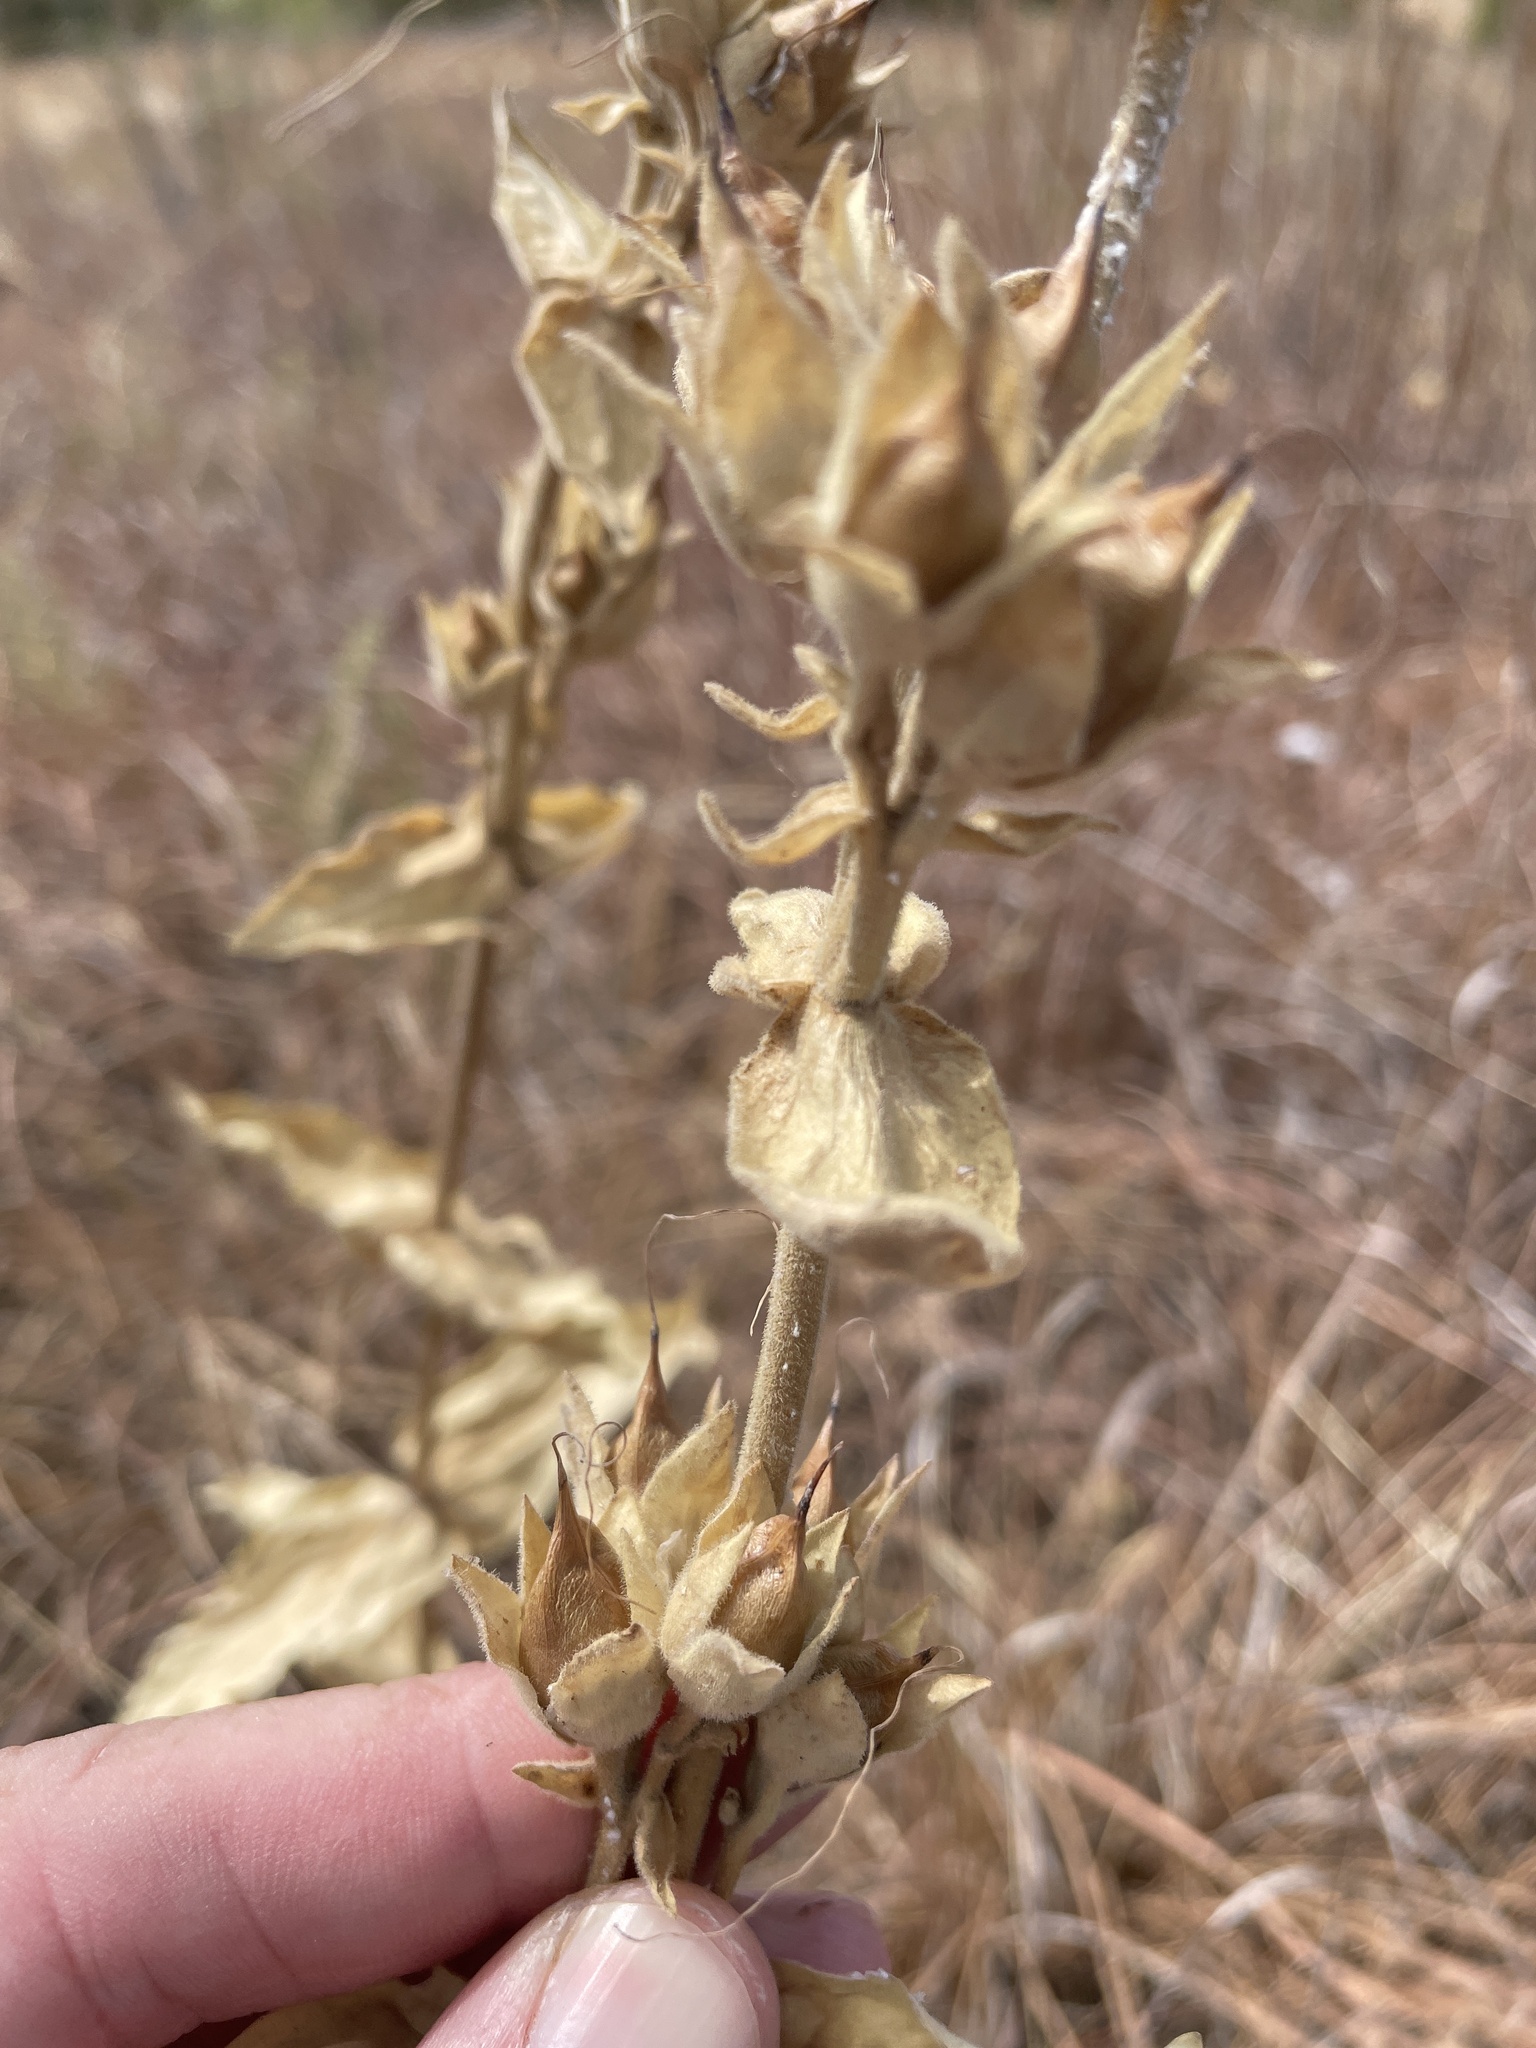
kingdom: Plantae
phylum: Tracheophyta
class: Magnoliopsida
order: Lamiales
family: Plantaginaceae
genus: Penstemon
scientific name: Penstemon cobaea
